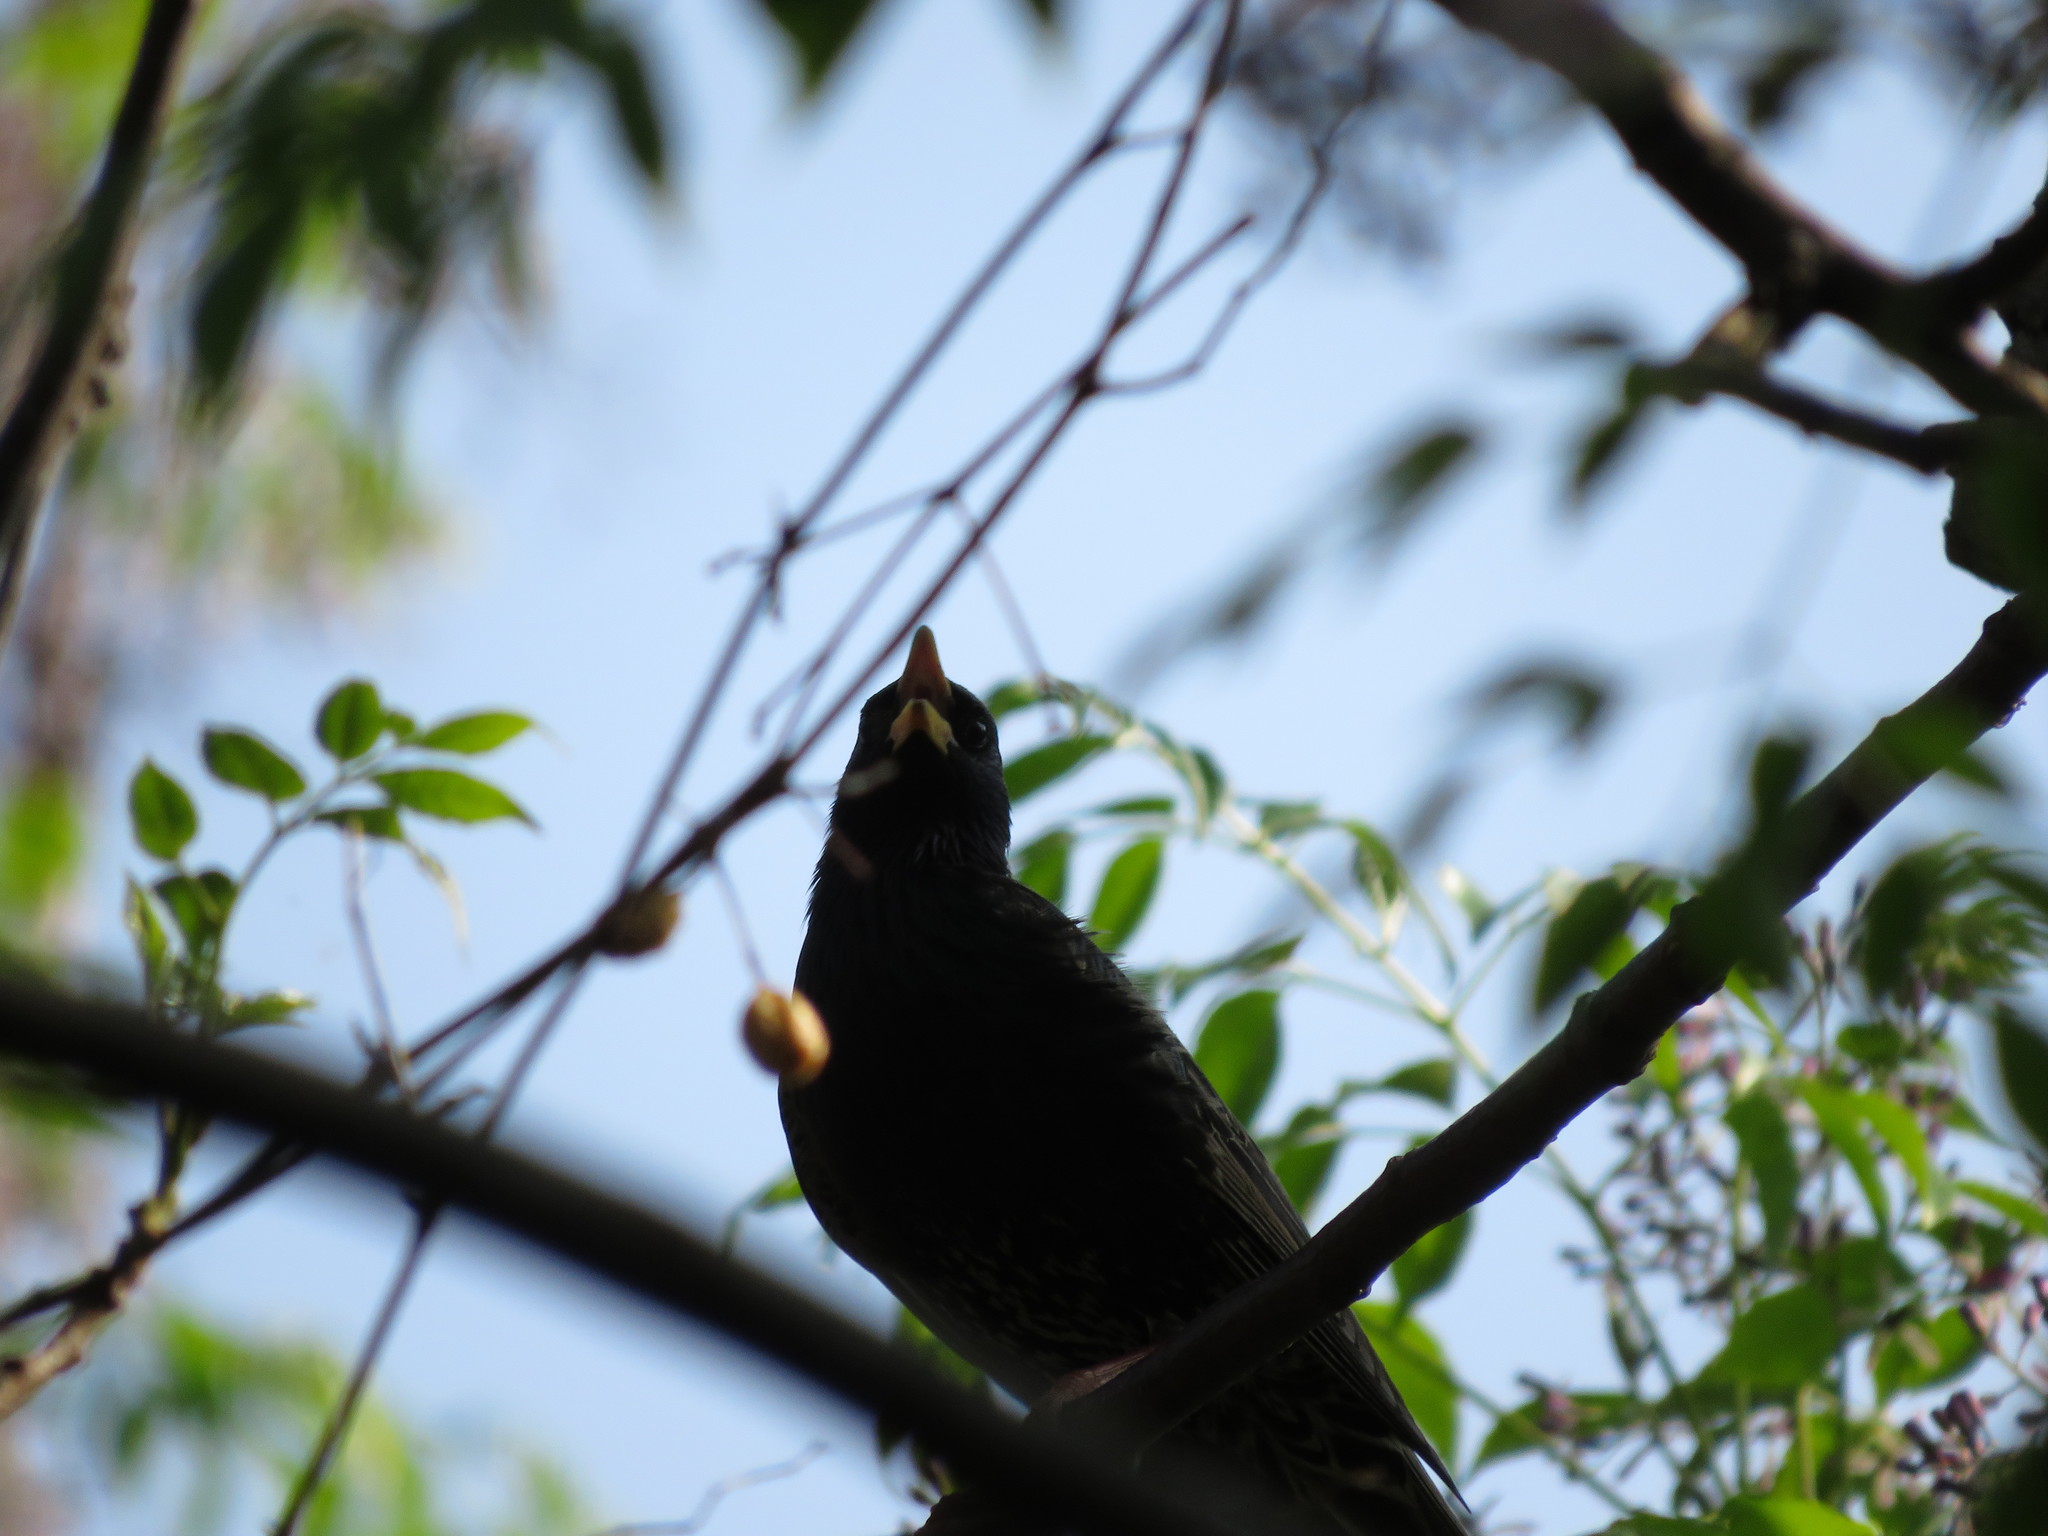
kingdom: Animalia
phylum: Chordata
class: Aves
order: Passeriformes
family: Sturnidae
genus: Sturnus
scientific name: Sturnus vulgaris
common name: Common starling
